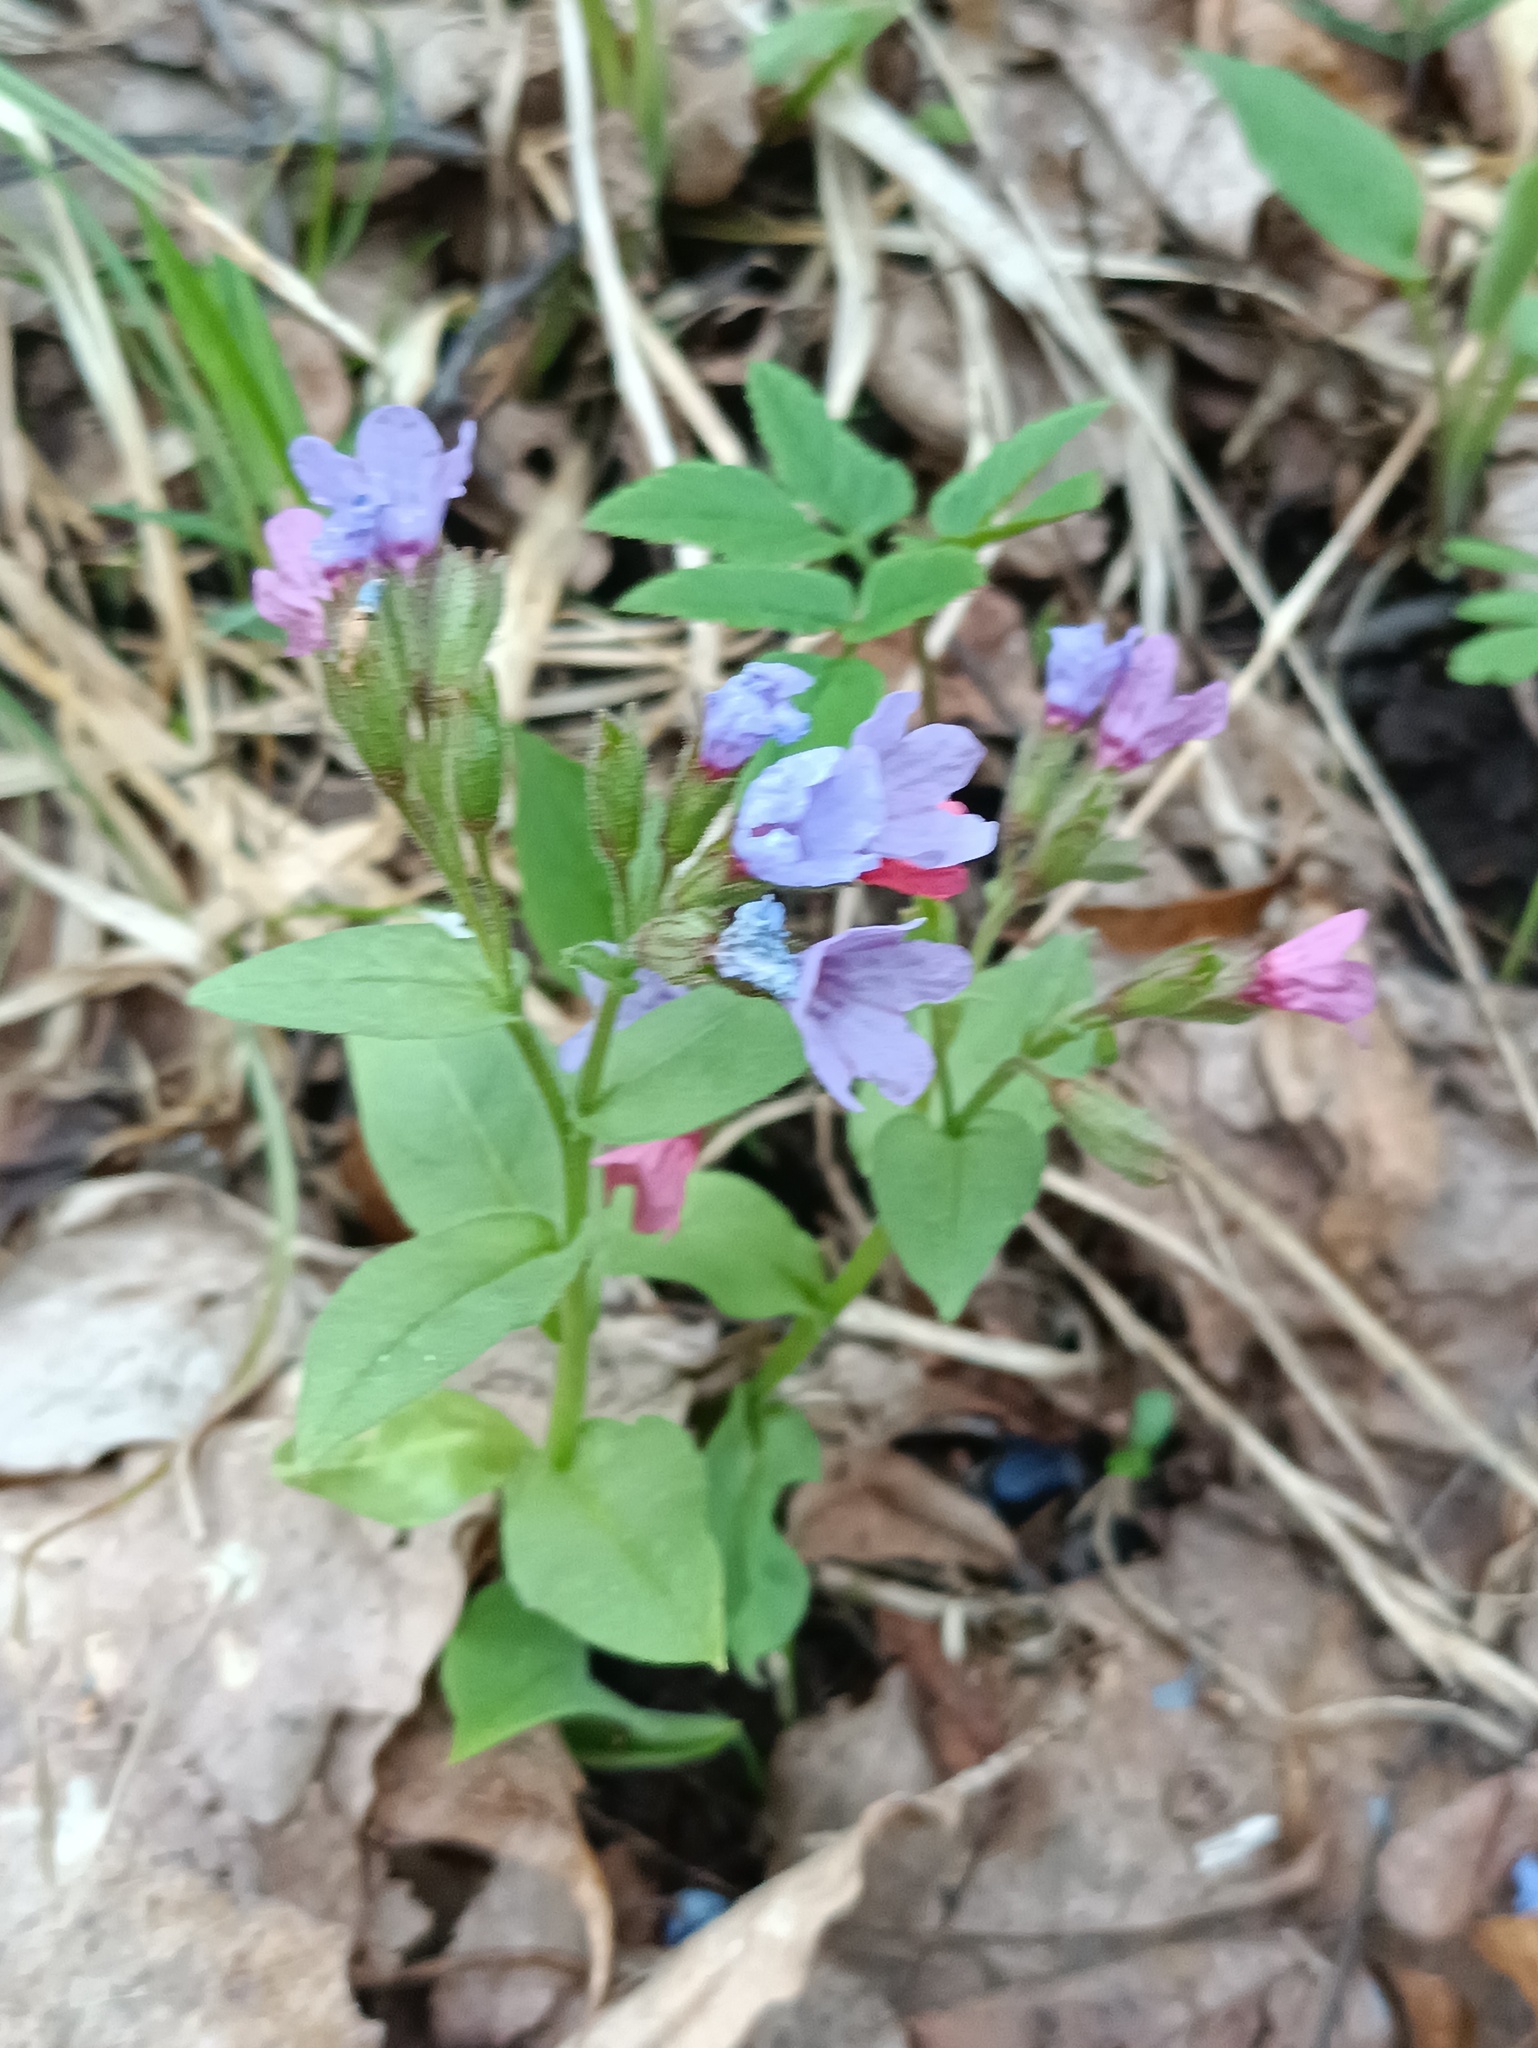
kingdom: Plantae
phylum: Tracheophyta
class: Magnoliopsida
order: Boraginales
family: Boraginaceae
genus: Pulmonaria
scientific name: Pulmonaria obscura
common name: Suffolk lungwort
